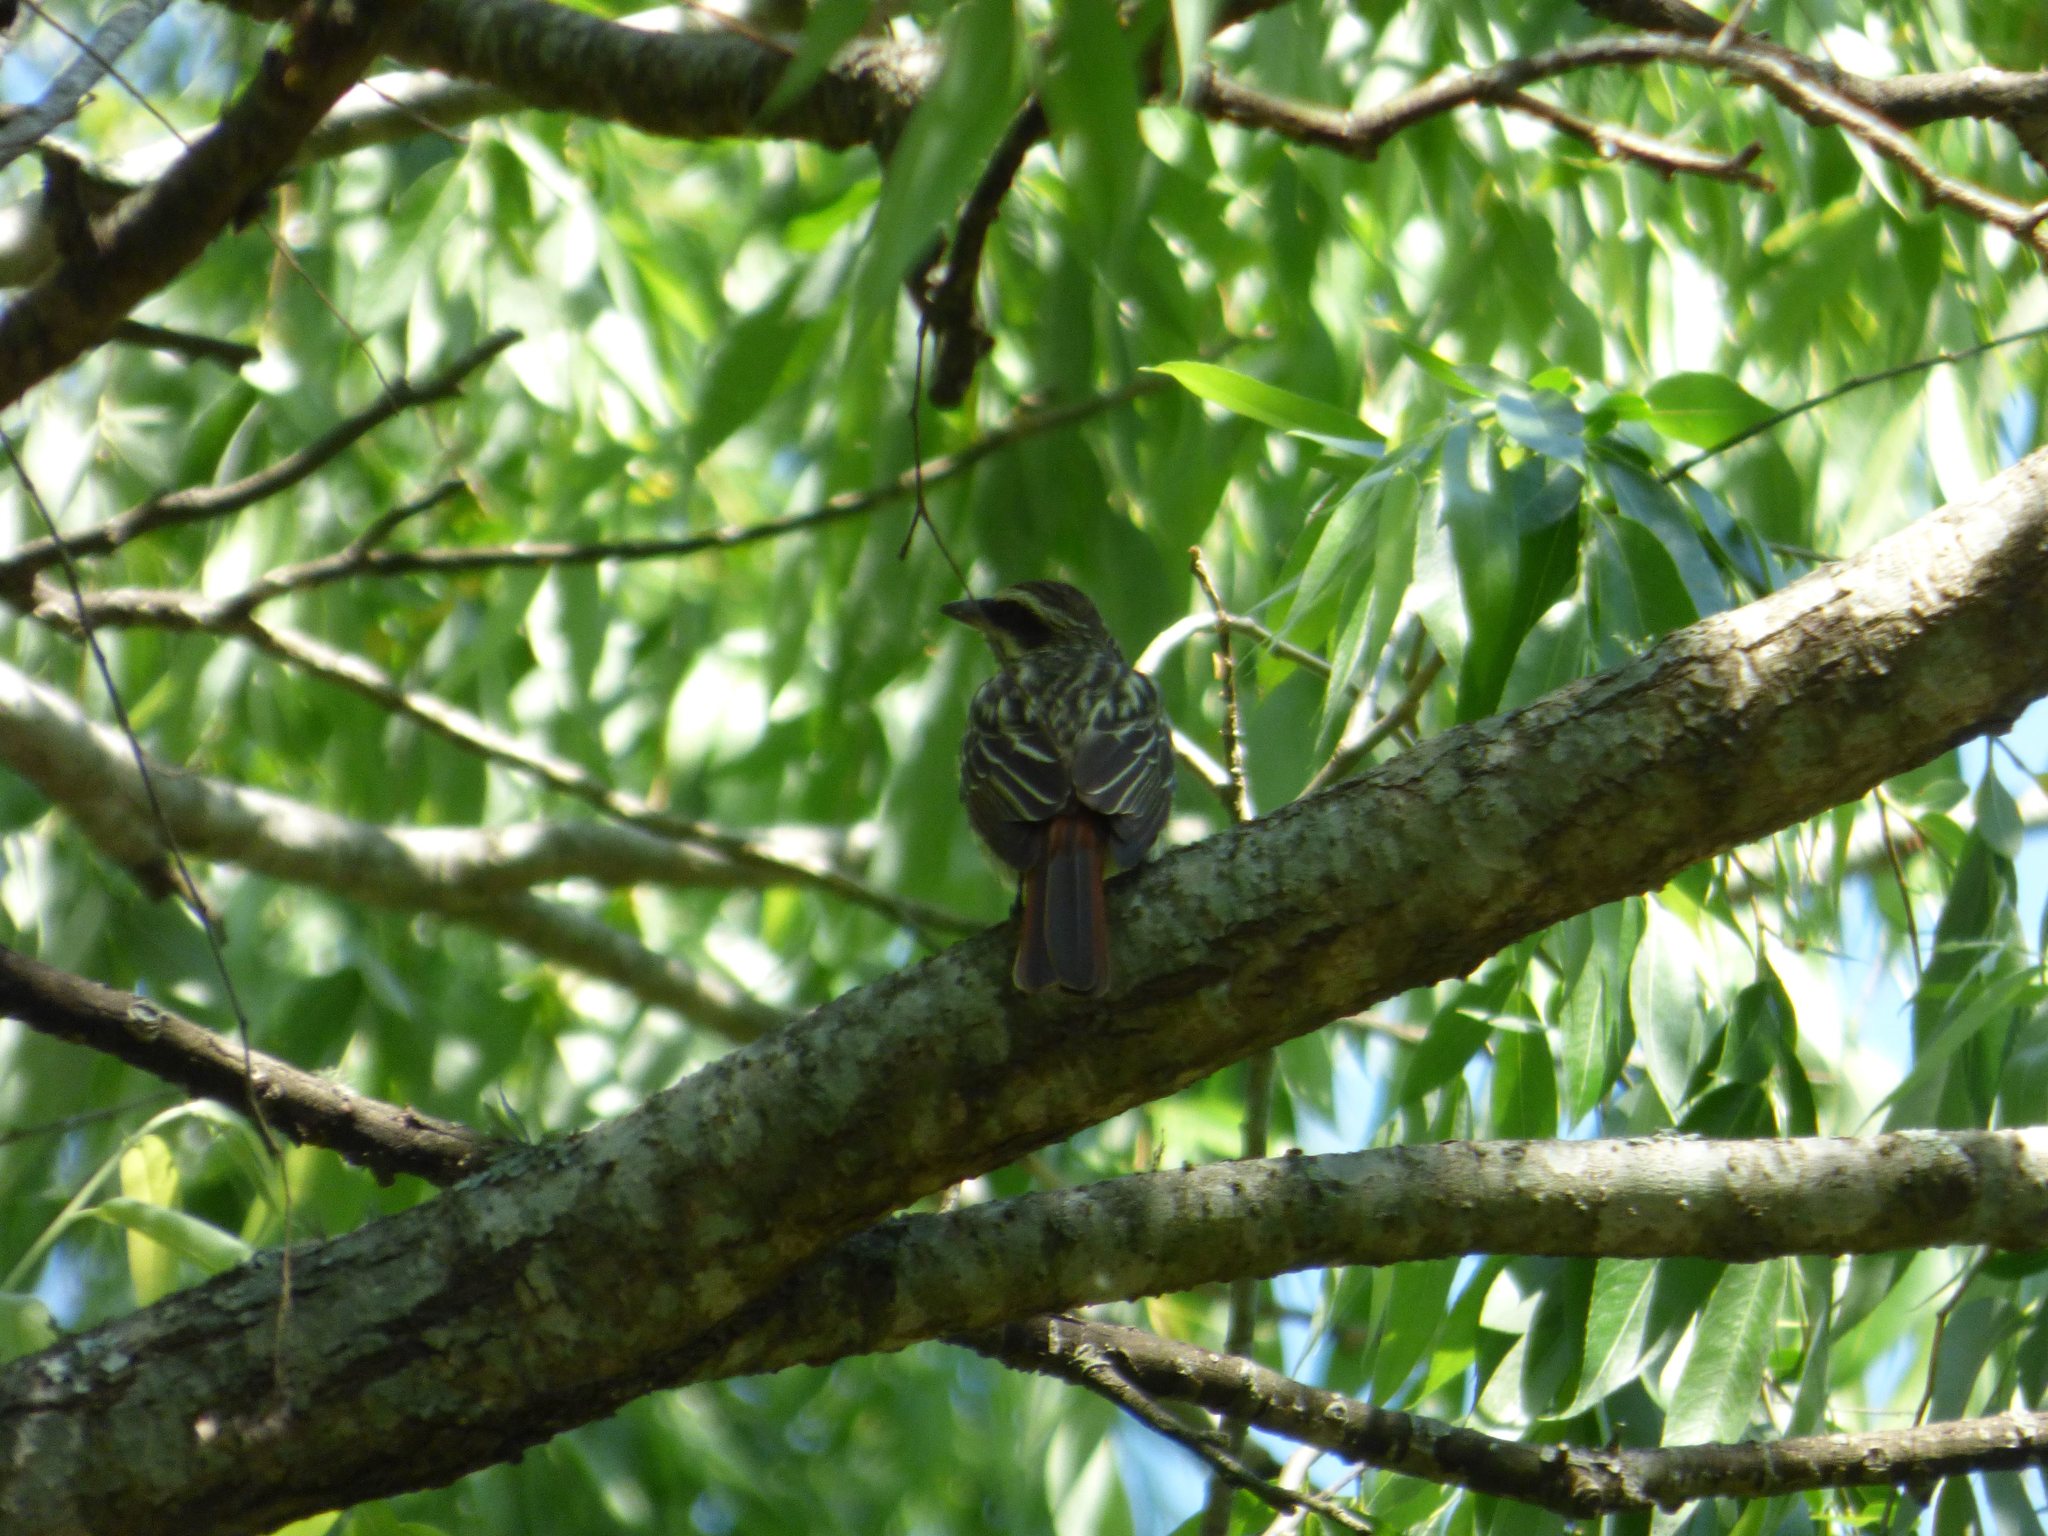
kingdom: Animalia
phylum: Chordata
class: Aves
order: Passeriformes
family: Tyrannidae
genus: Myiodynastes
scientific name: Myiodynastes maculatus
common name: Streaked flycatcher
